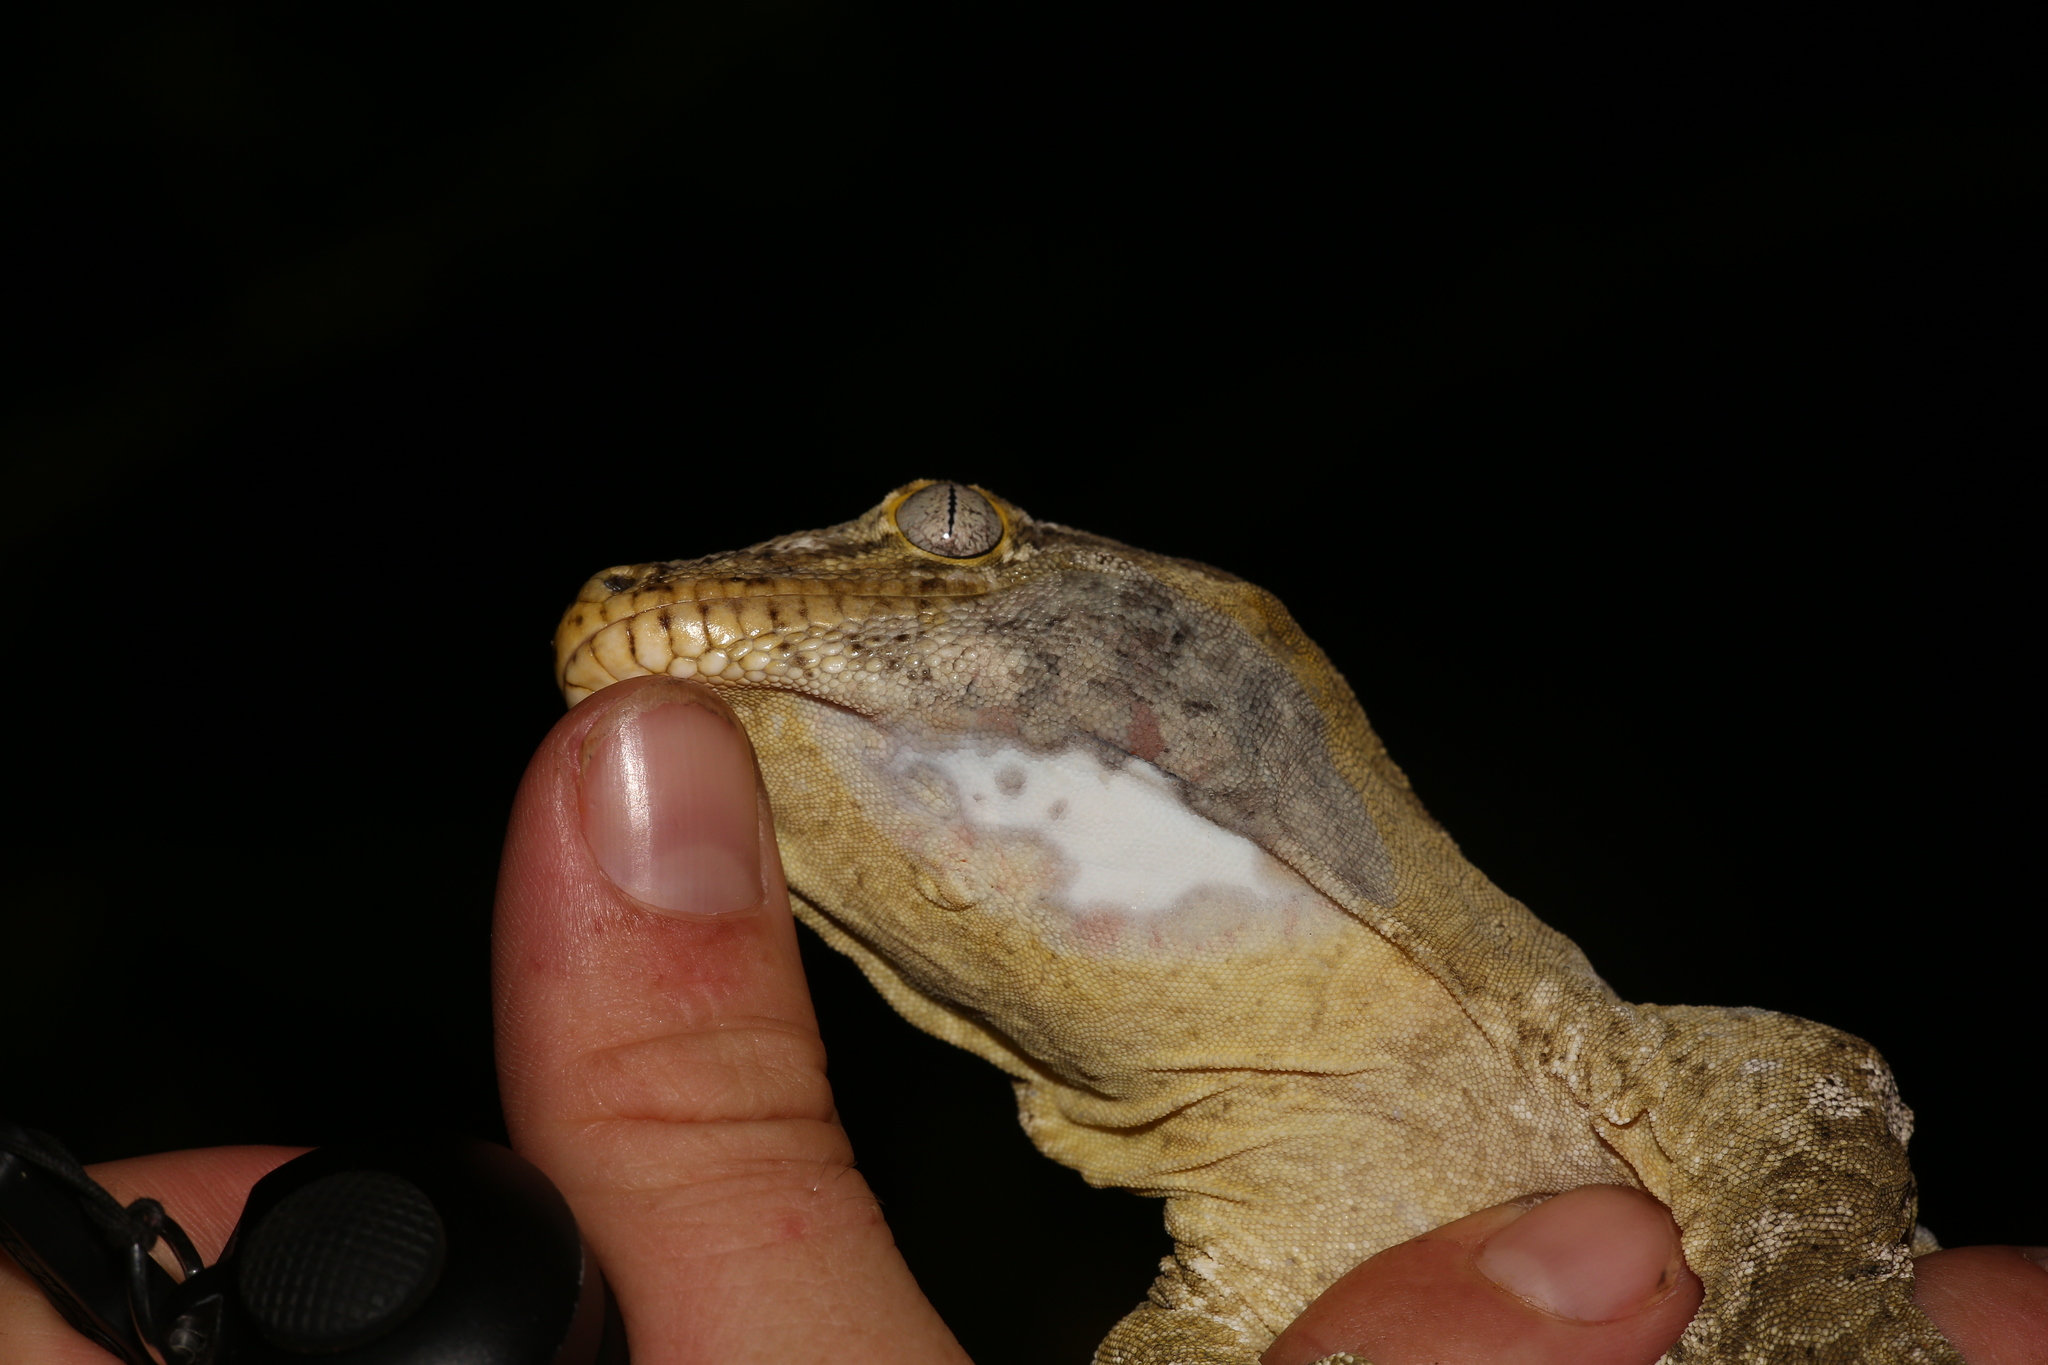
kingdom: Animalia
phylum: Chordata
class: Squamata
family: Diplodactylidae
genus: Rhacodactylus
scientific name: Rhacodactylus leachianus
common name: New caledonia giant gecko
